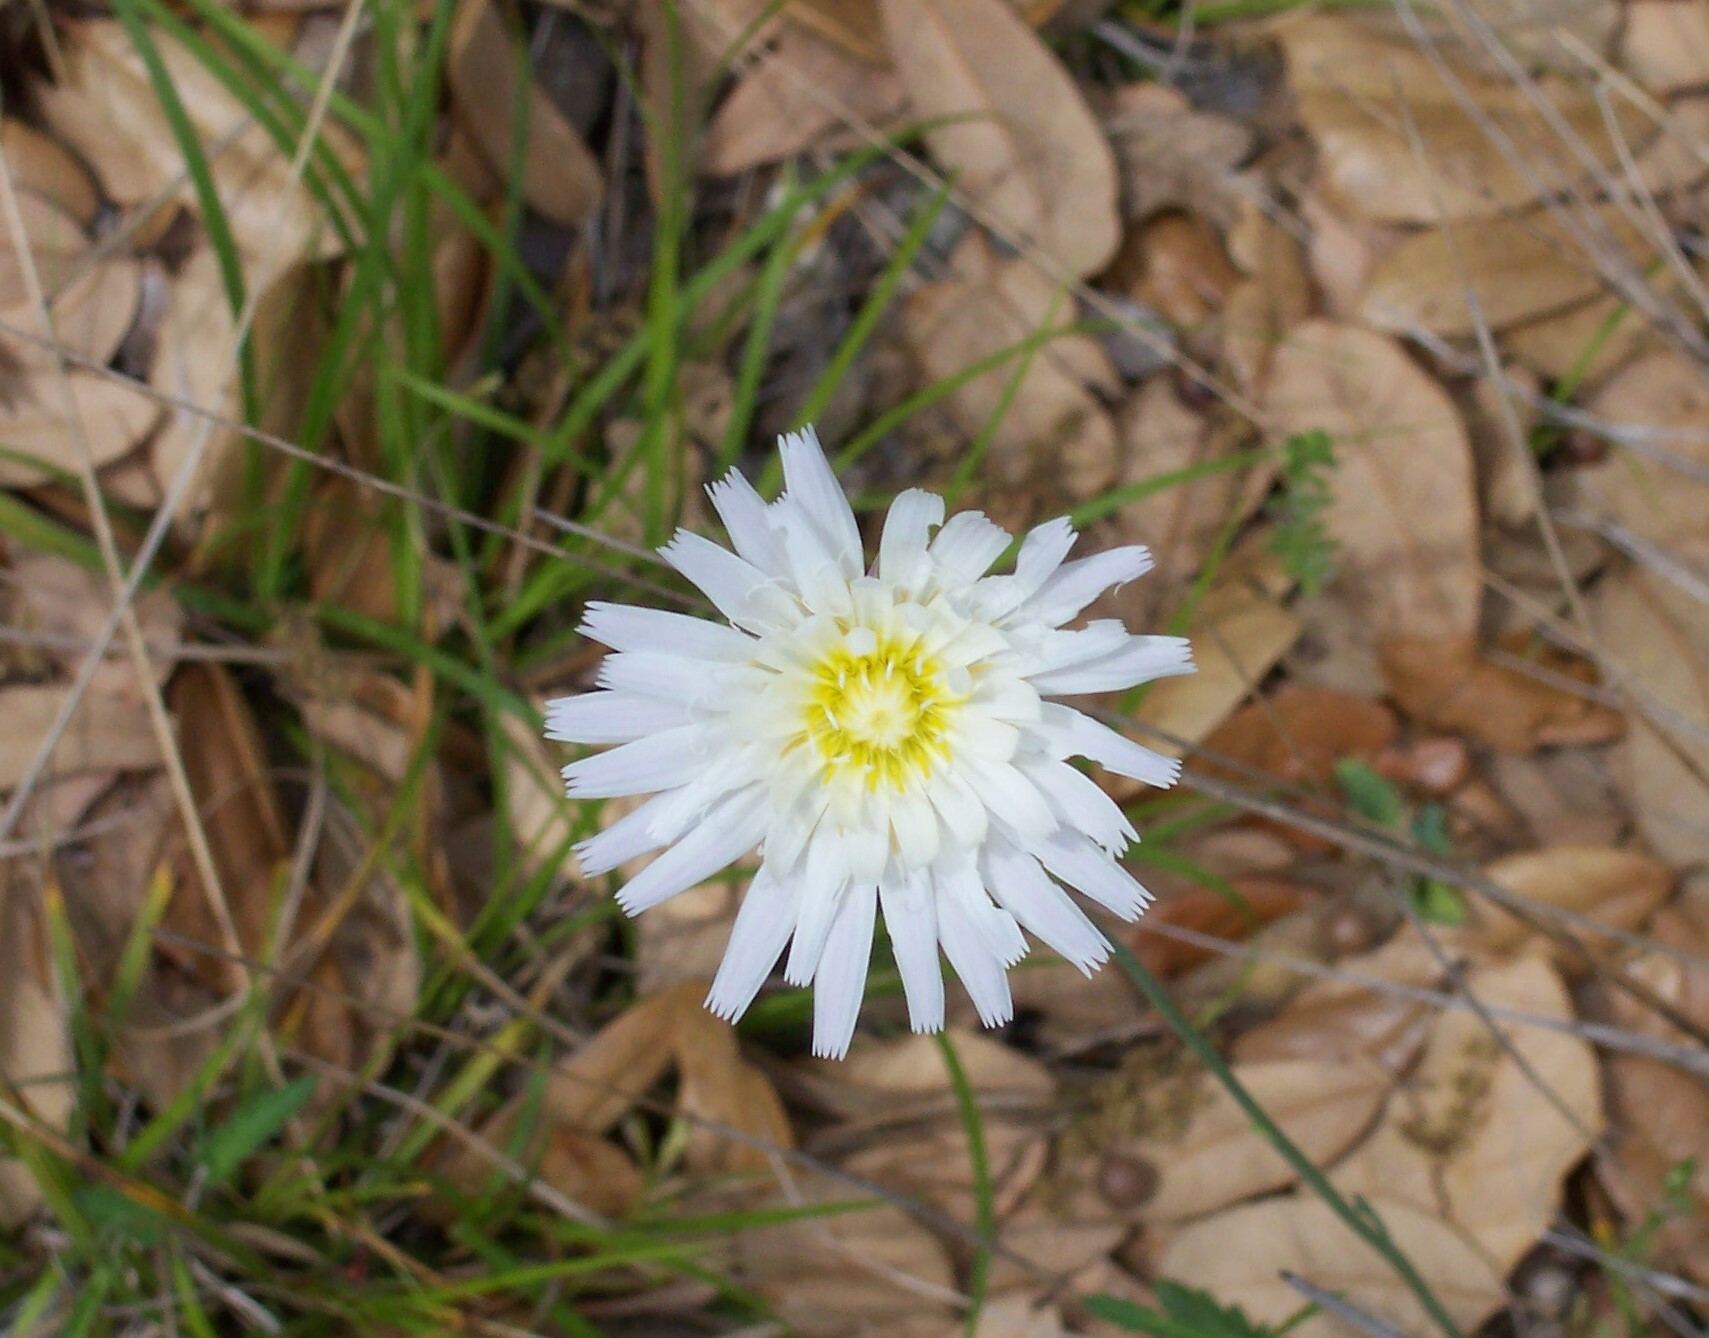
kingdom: Plantae
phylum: Tracheophyta
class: Magnoliopsida
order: Asterales
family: Asteraceae
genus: Pinaropappus
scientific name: Pinaropappus roseus
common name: Rock-lettuce
